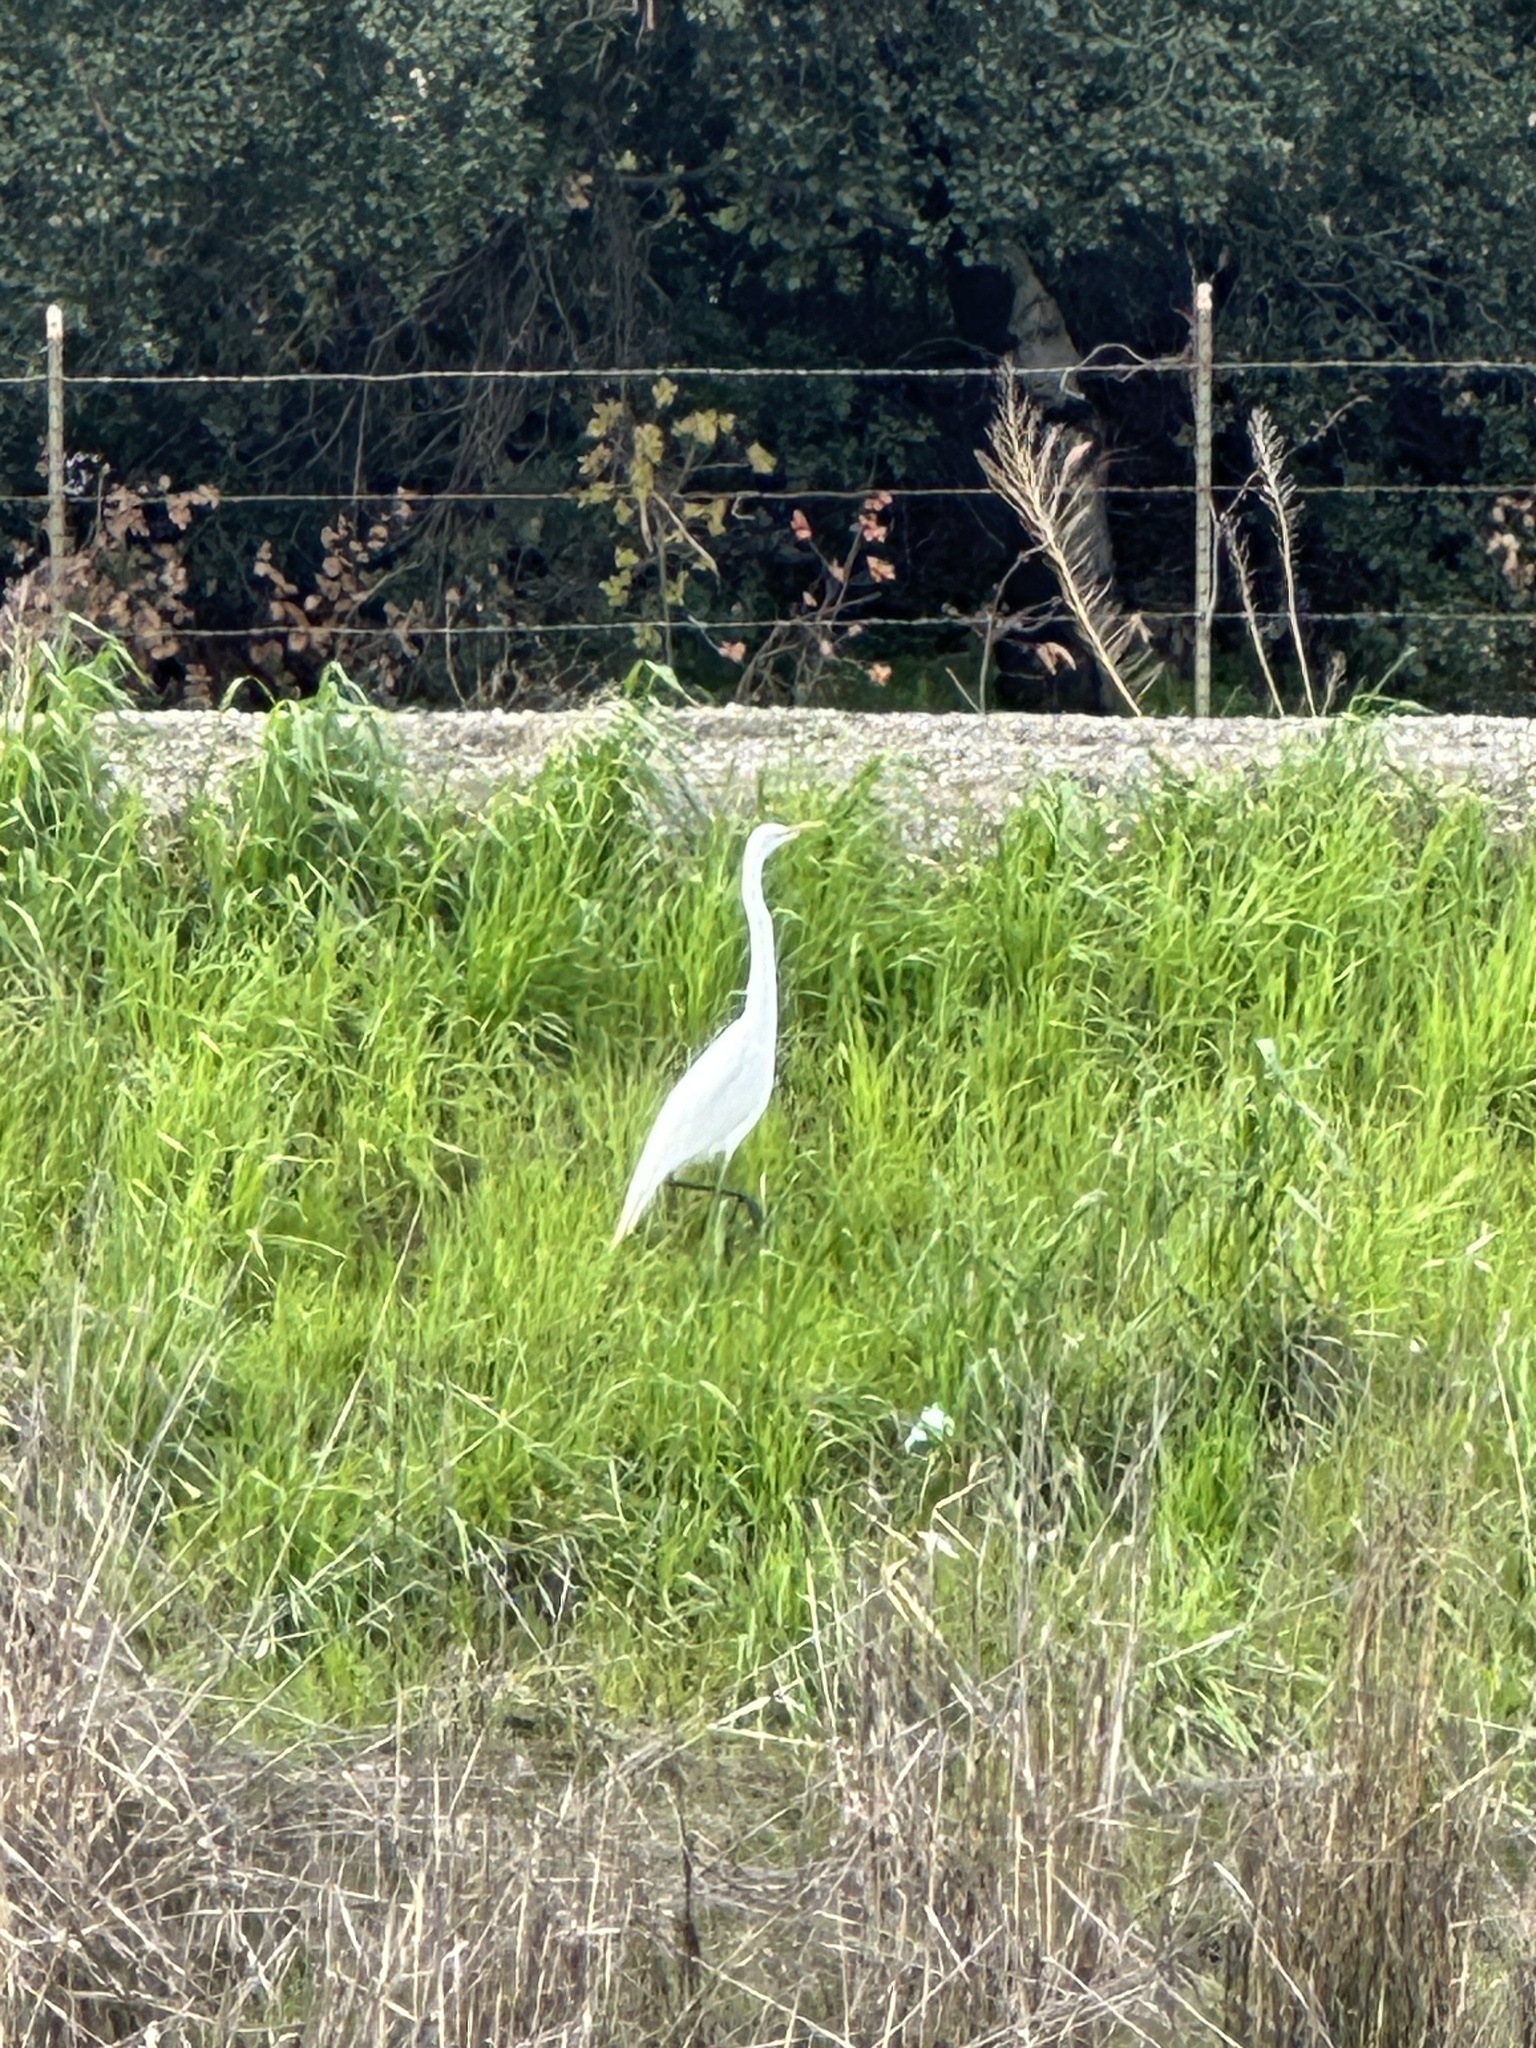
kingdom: Animalia
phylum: Chordata
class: Aves
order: Pelecaniformes
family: Ardeidae
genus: Ardea
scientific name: Ardea alba
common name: Great egret
